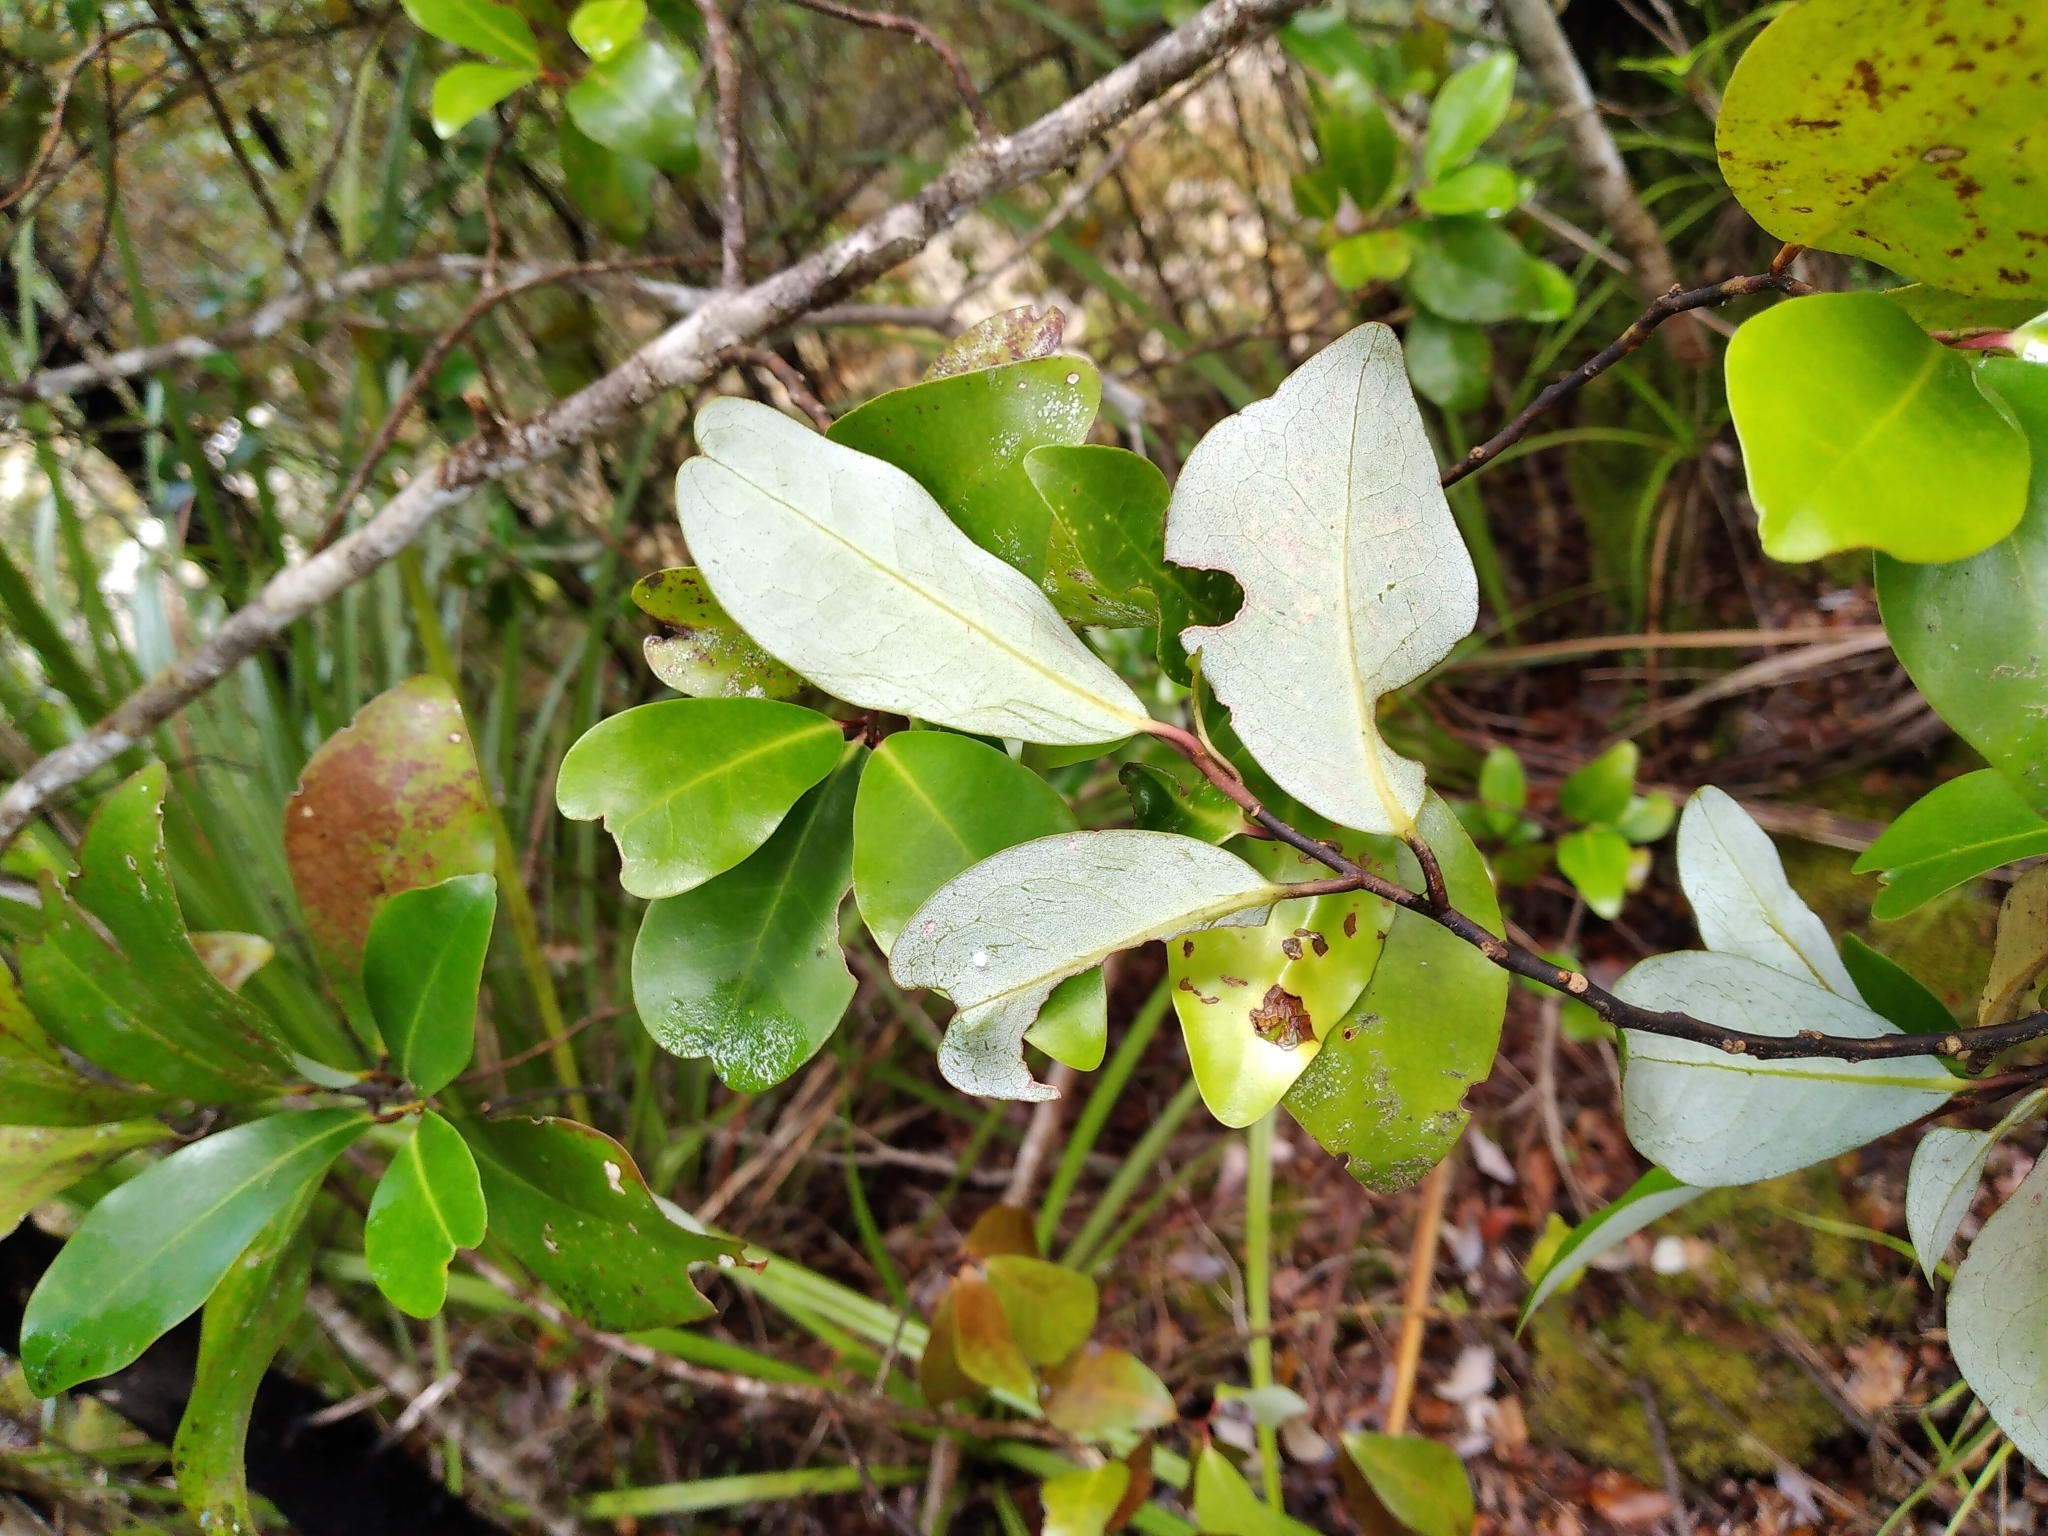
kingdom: Plantae
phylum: Tracheophyta
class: Magnoliopsida
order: Canellales
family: Winteraceae
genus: Pseudowintera
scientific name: Pseudowintera axillaris
